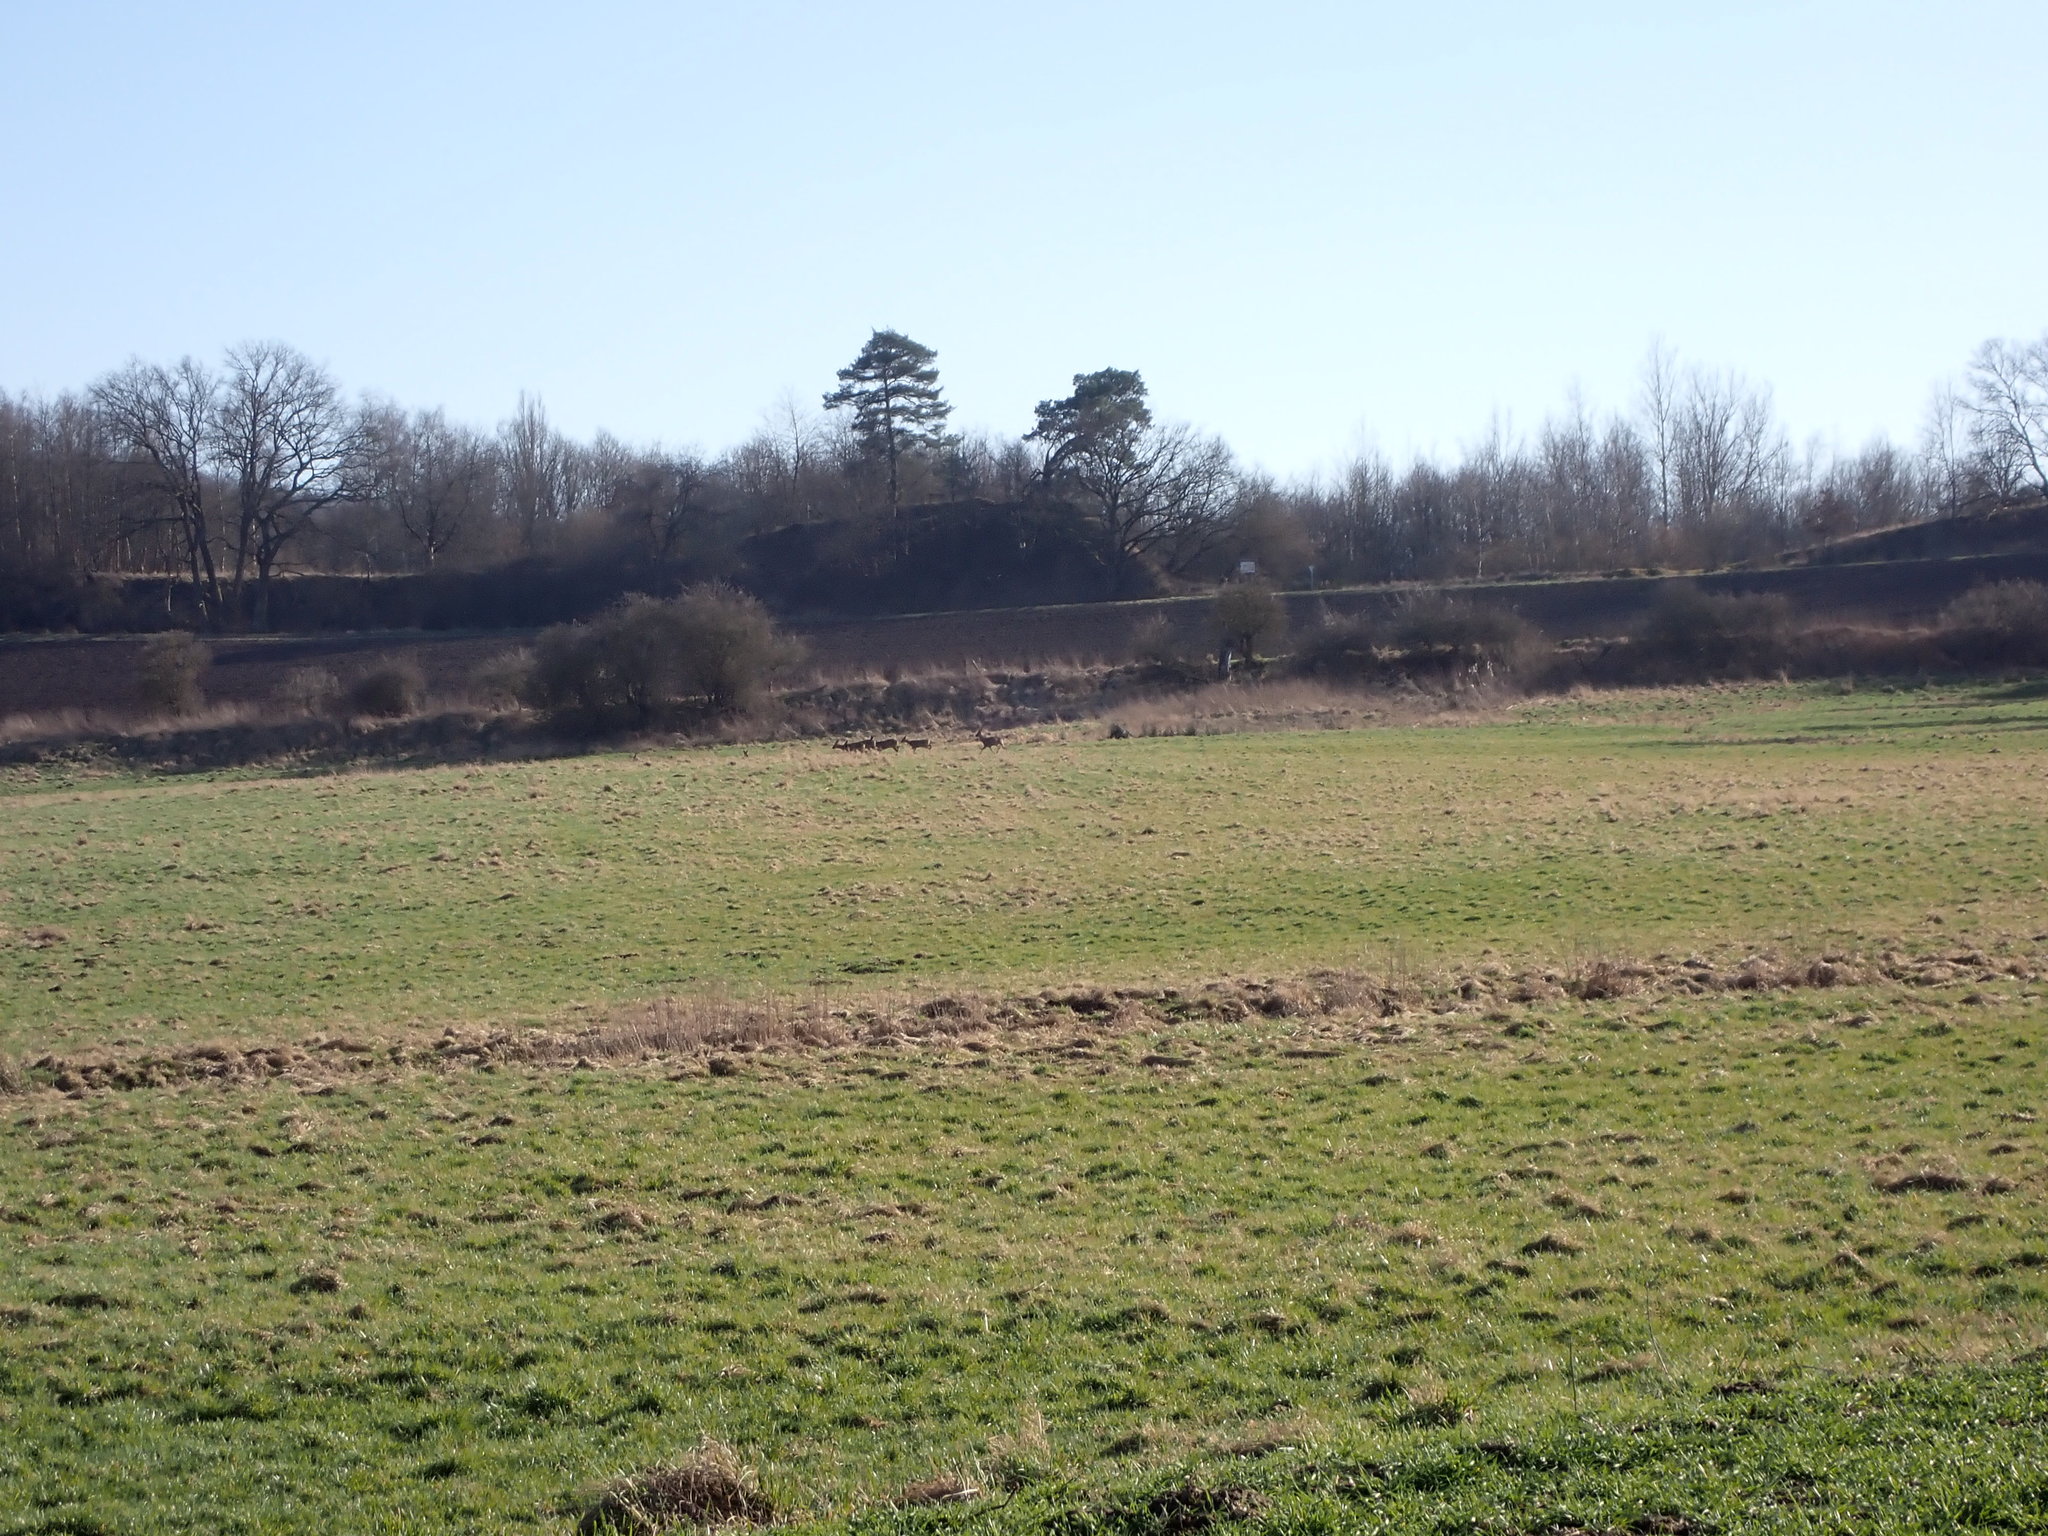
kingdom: Animalia
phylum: Chordata
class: Mammalia
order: Artiodactyla
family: Cervidae
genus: Capreolus
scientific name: Capreolus capreolus
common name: Western roe deer
